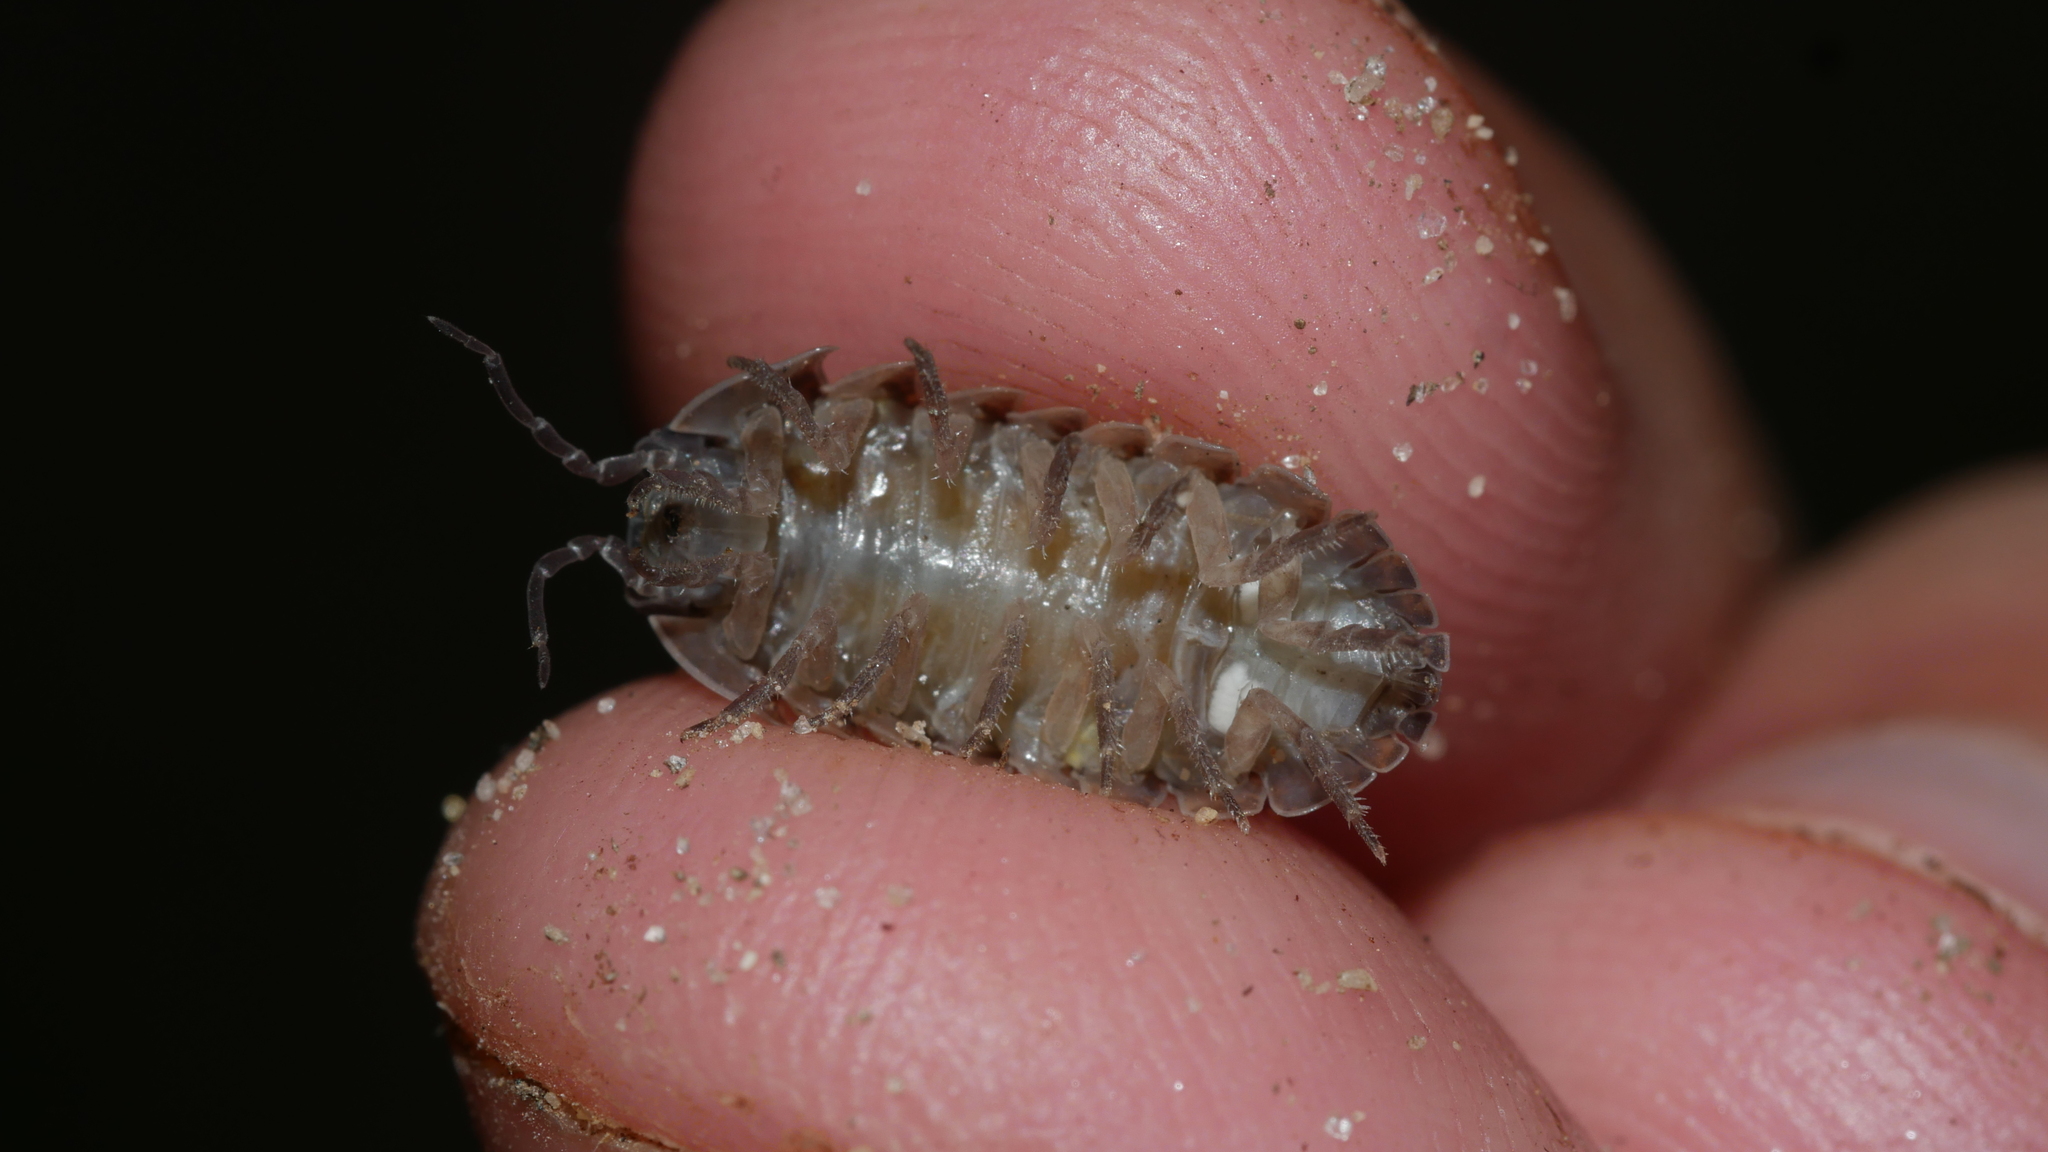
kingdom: Animalia
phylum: Arthropoda
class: Malacostraca
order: Isopoda
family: Armadillidiidae
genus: Armadillidium
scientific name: Armadillidium vulgare
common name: Common pill woodlouse
